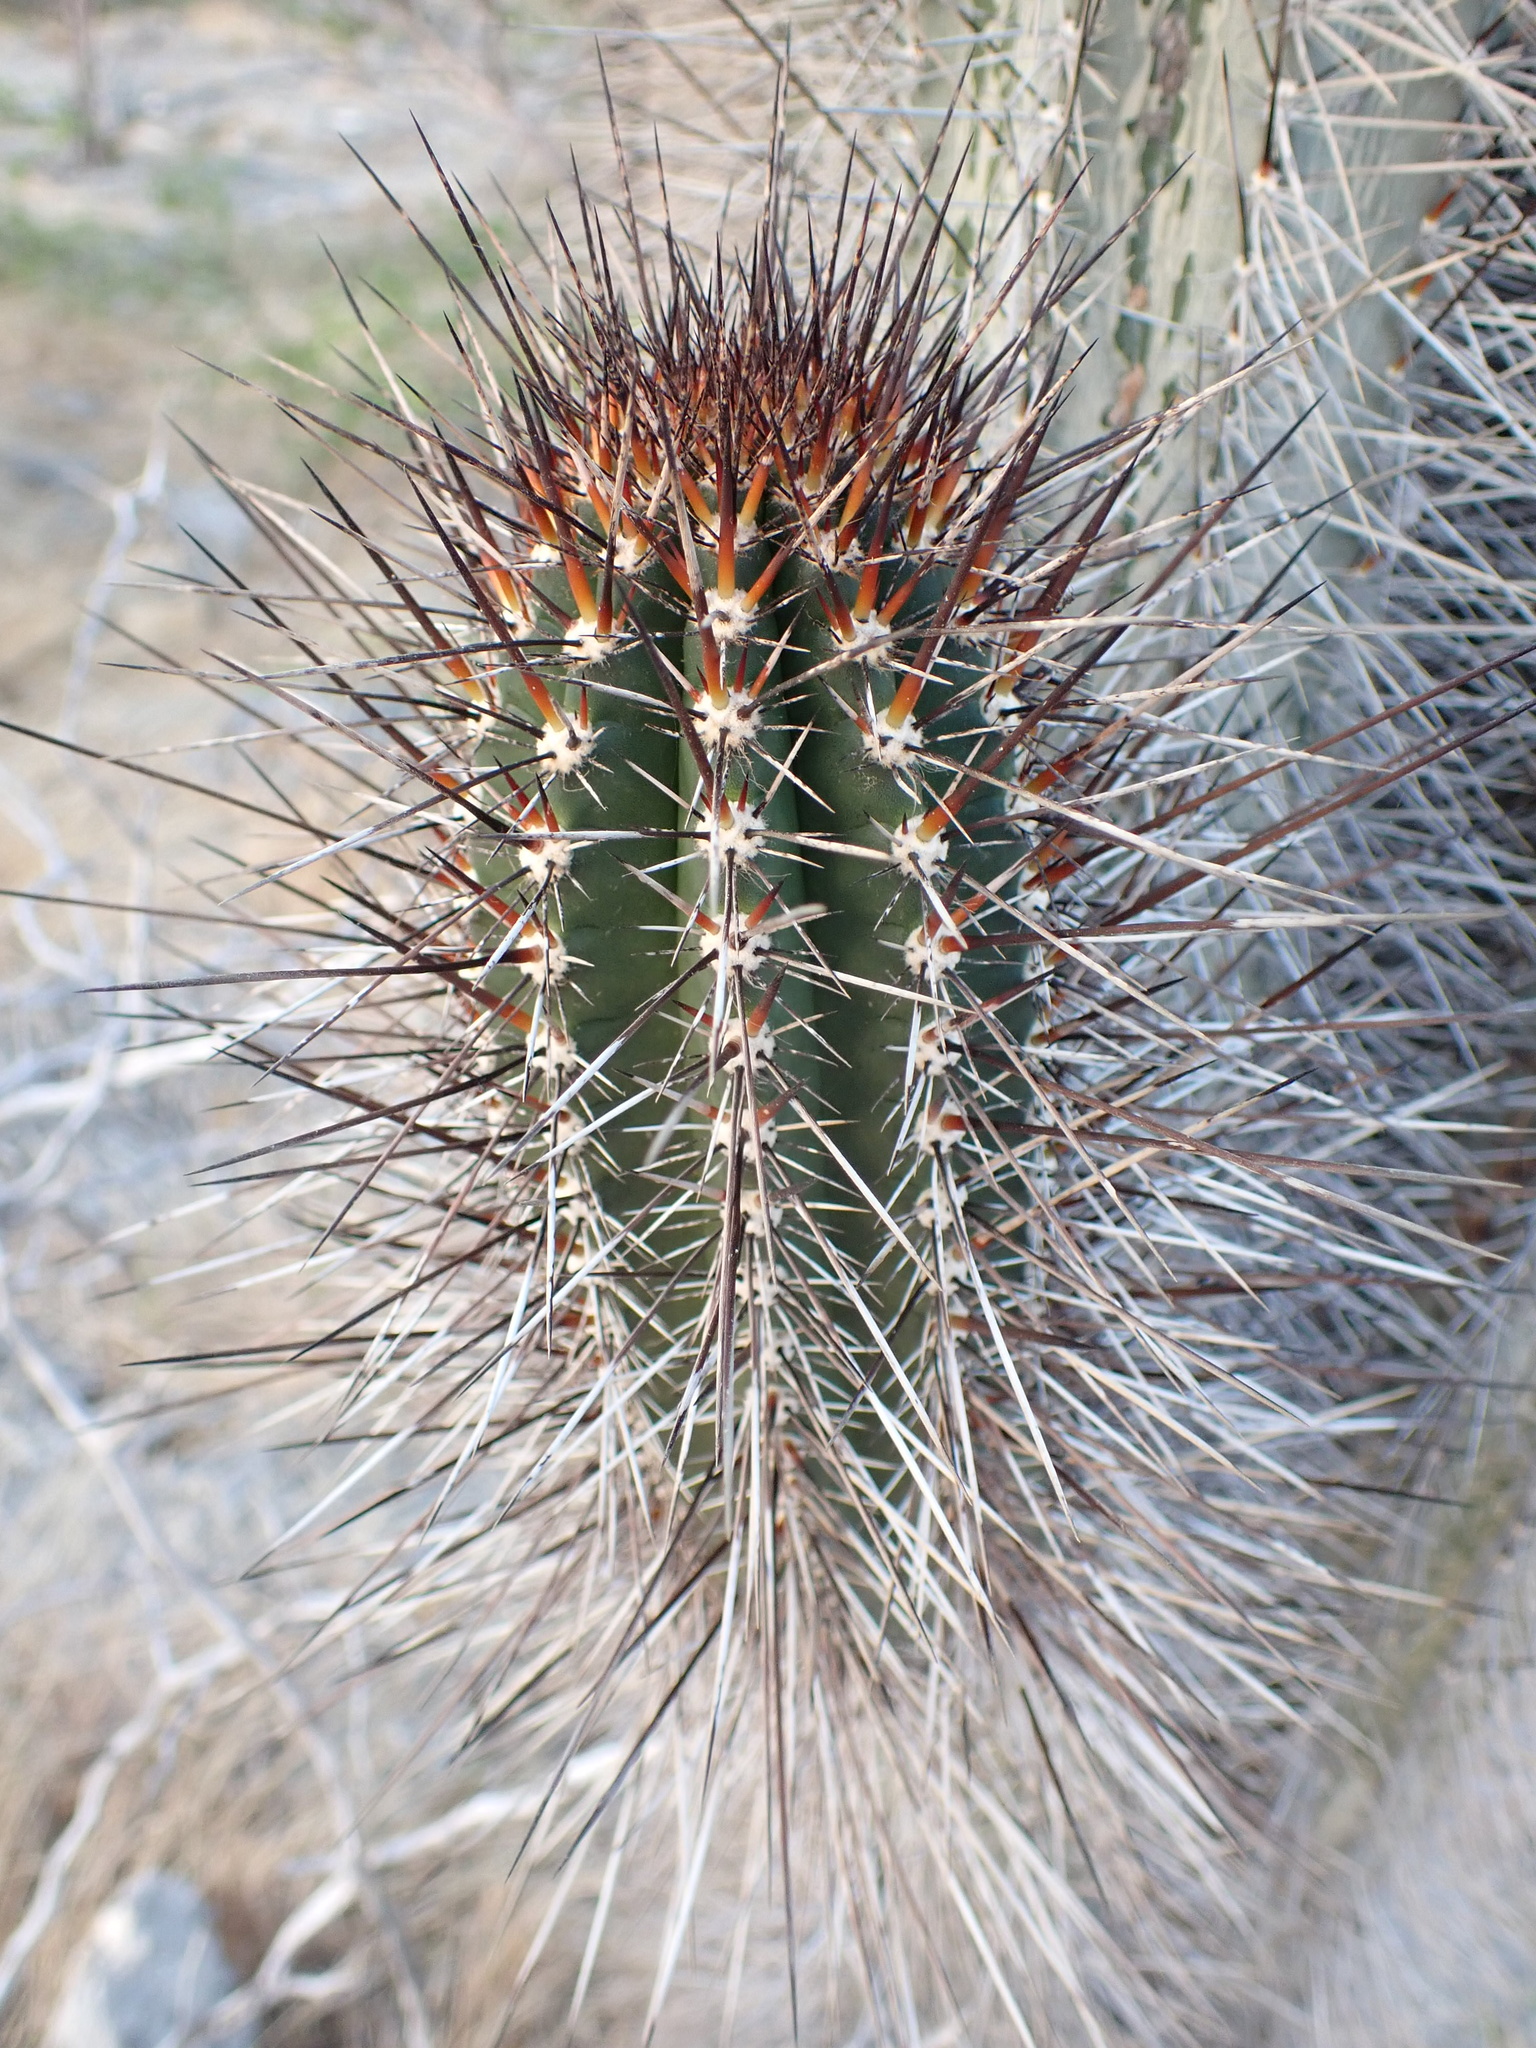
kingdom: Plantae
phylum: Tracheophyta
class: Magnoliopsida
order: Caryophyllales
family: Cactaceae
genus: Stenocereus
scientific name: Stenocereus heptagonus
